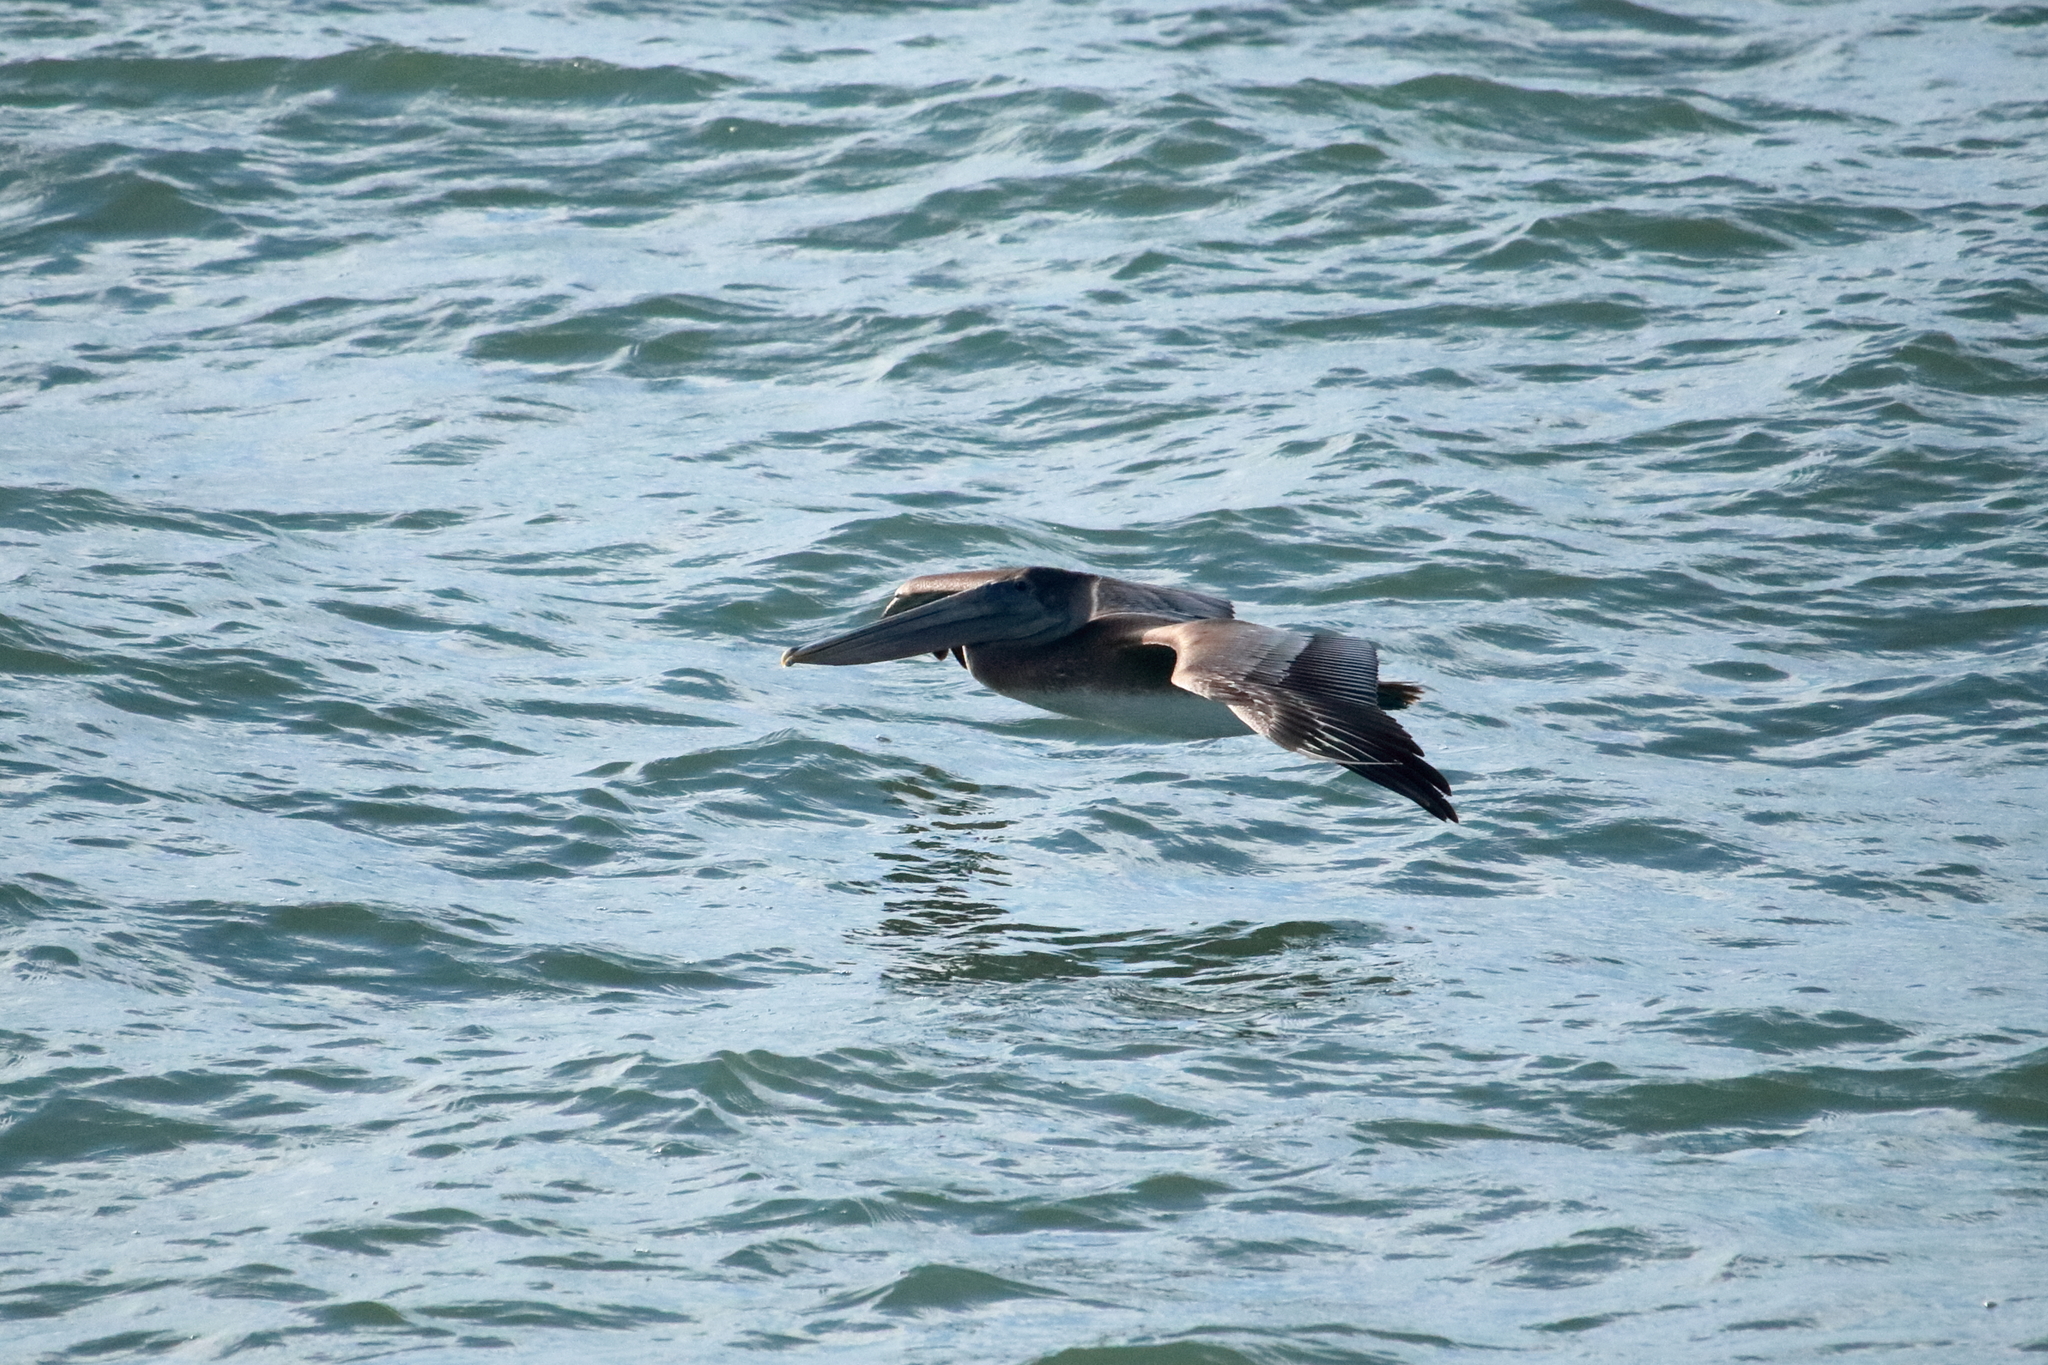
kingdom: Animalia
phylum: Chordata
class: Aves
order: Pelecaniformes
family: Pelecanidae
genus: Pelecanus
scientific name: Pelecanus occidentalis
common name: Brown pelican
